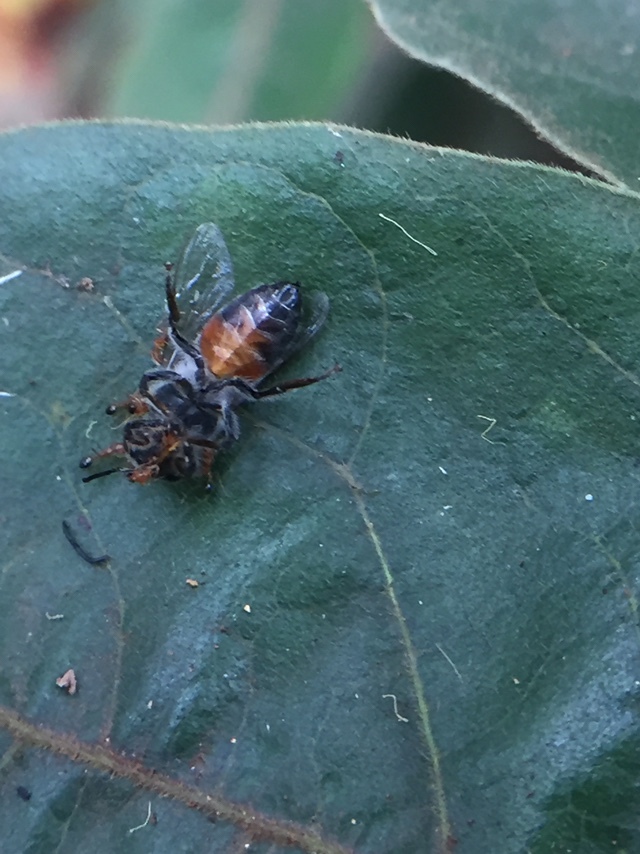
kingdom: Animalia
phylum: Arthropoda
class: Insecta
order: Hymenoptera
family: Apidae
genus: Apis
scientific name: Apis florea
